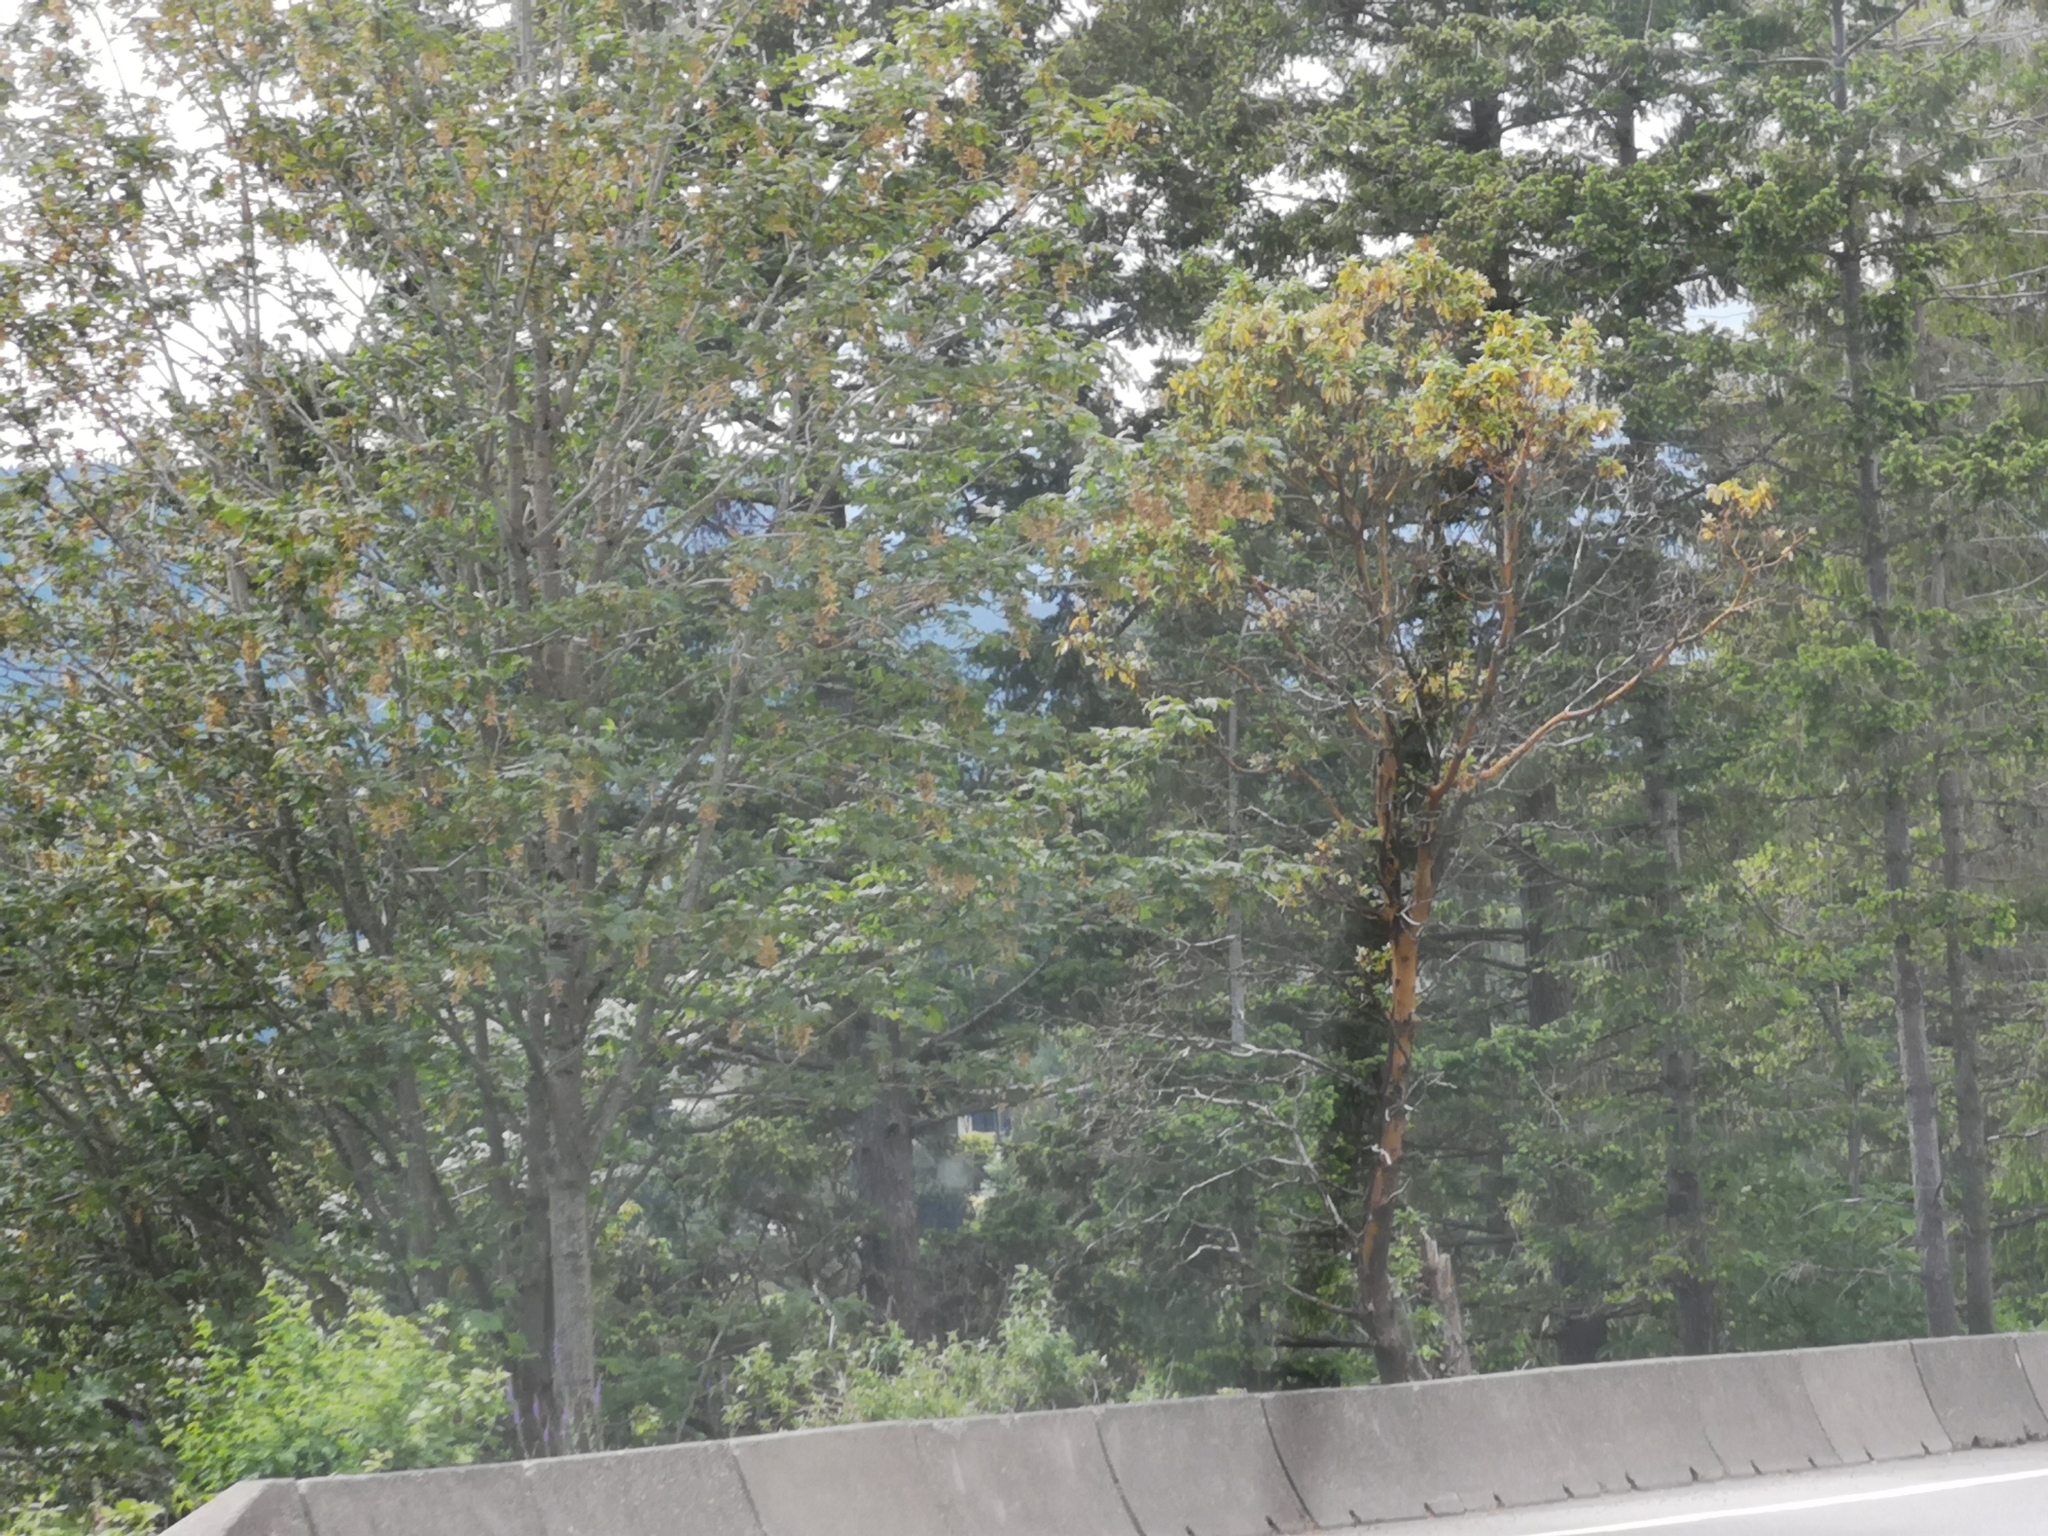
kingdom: Plantae
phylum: Tracheophyta
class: Magnoliopsida
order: Ericales
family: Ericaceae
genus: Arbutus
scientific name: Arbutus menziesii
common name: Pacific madrone
